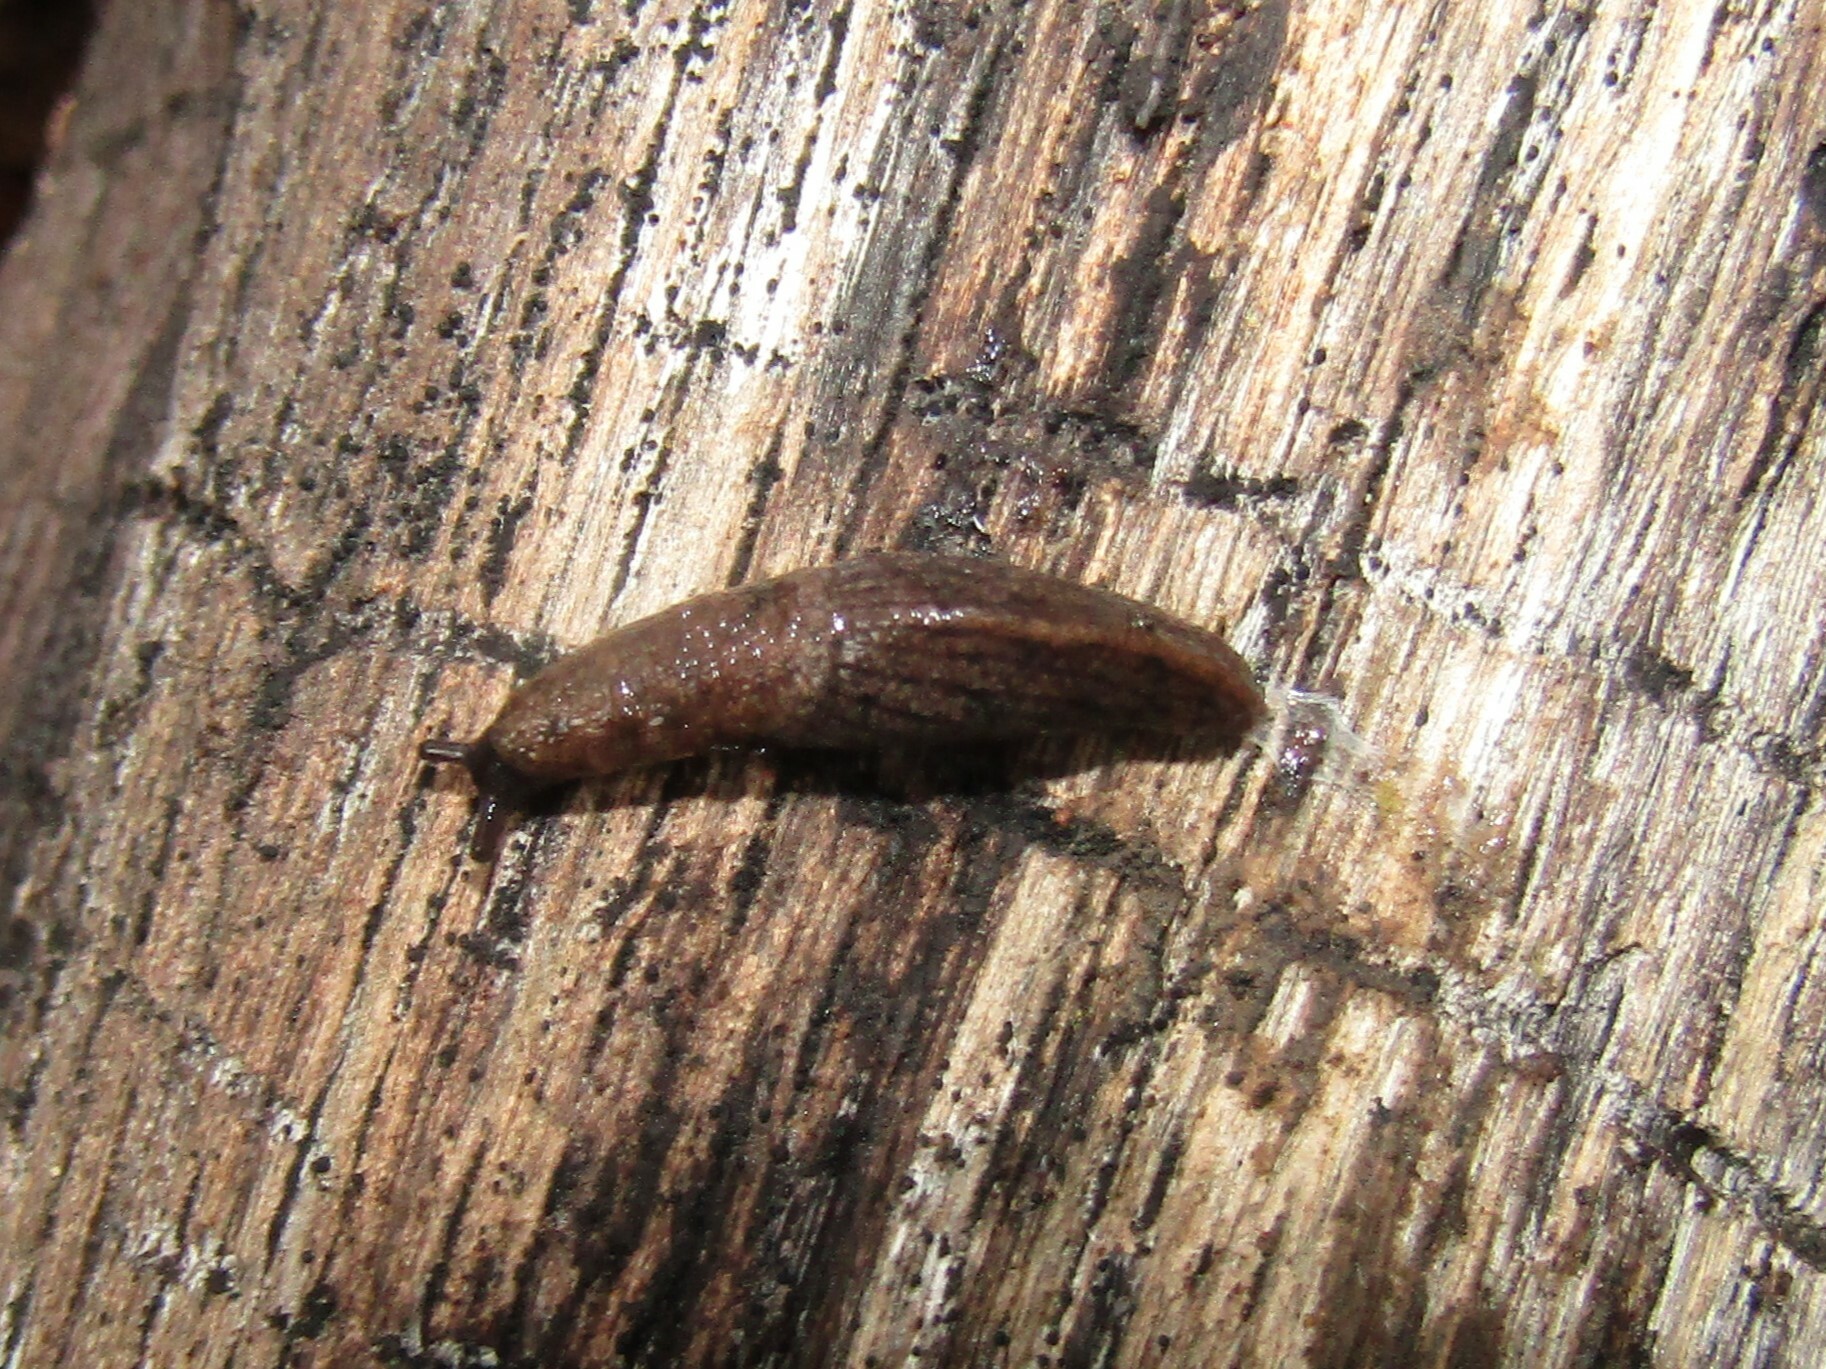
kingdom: Animalia
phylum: Mollusca
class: Gastropoda
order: Stylommatophora
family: Ariolimacidae
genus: Hesperarion
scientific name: Hesperarion niger
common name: Black western slug
